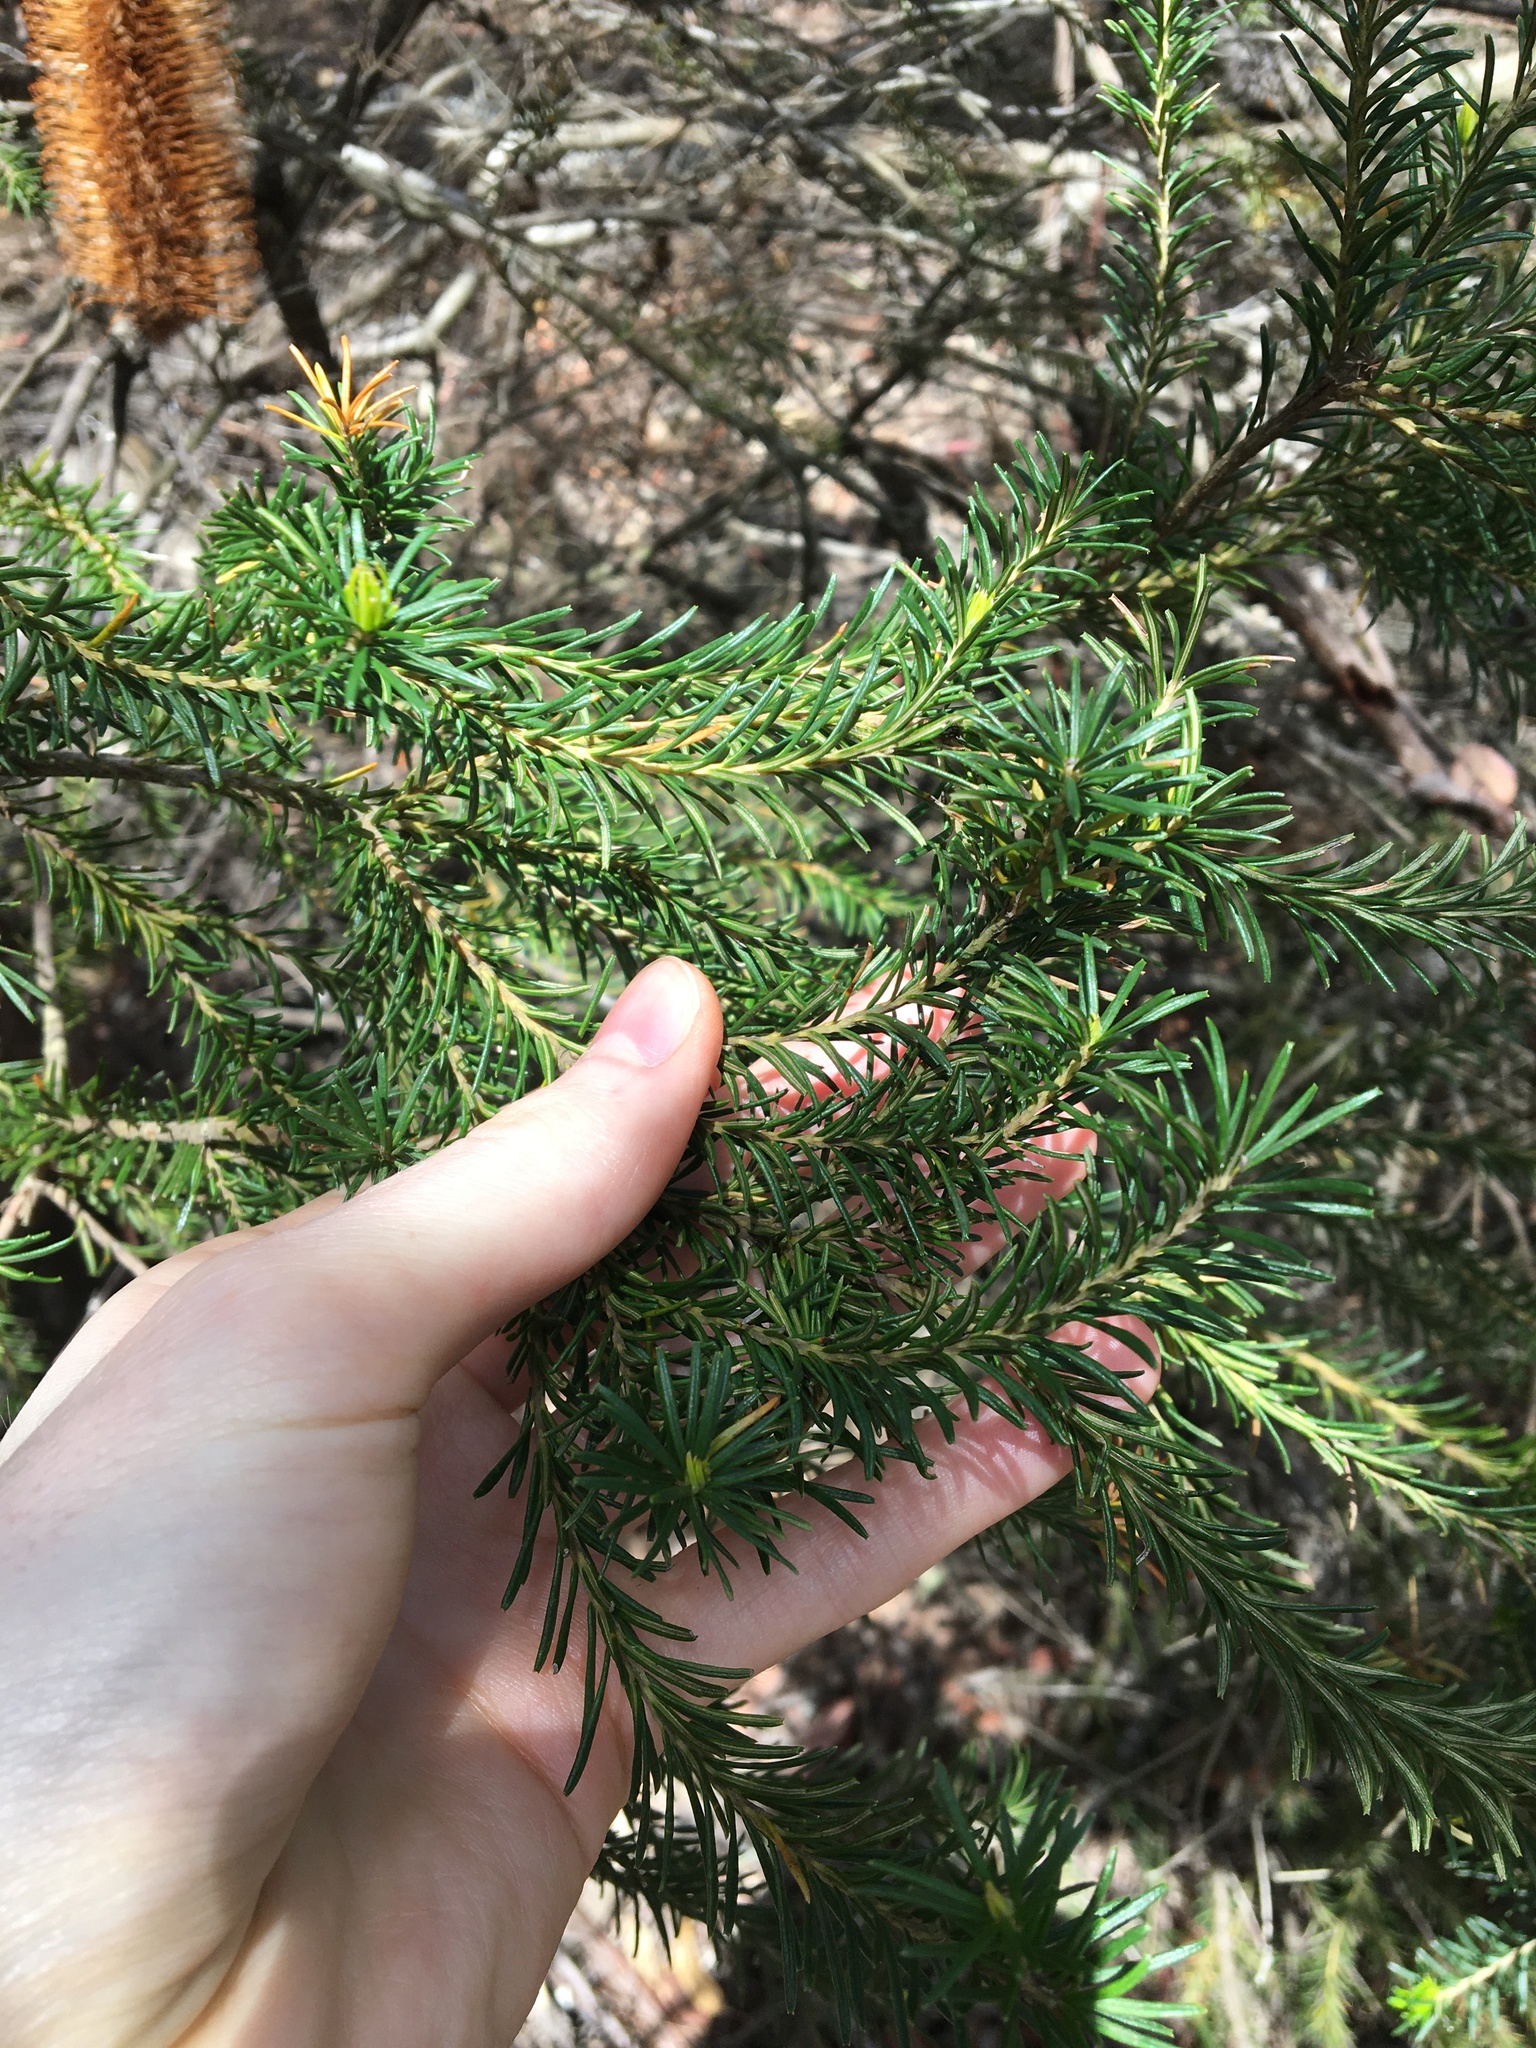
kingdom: Plantae
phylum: Tracheophyta
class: Magnoliopsida
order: Proteales
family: Proteaceae
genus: Banksia
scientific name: Banksia ericifolia
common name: Heath-leaf banksia
